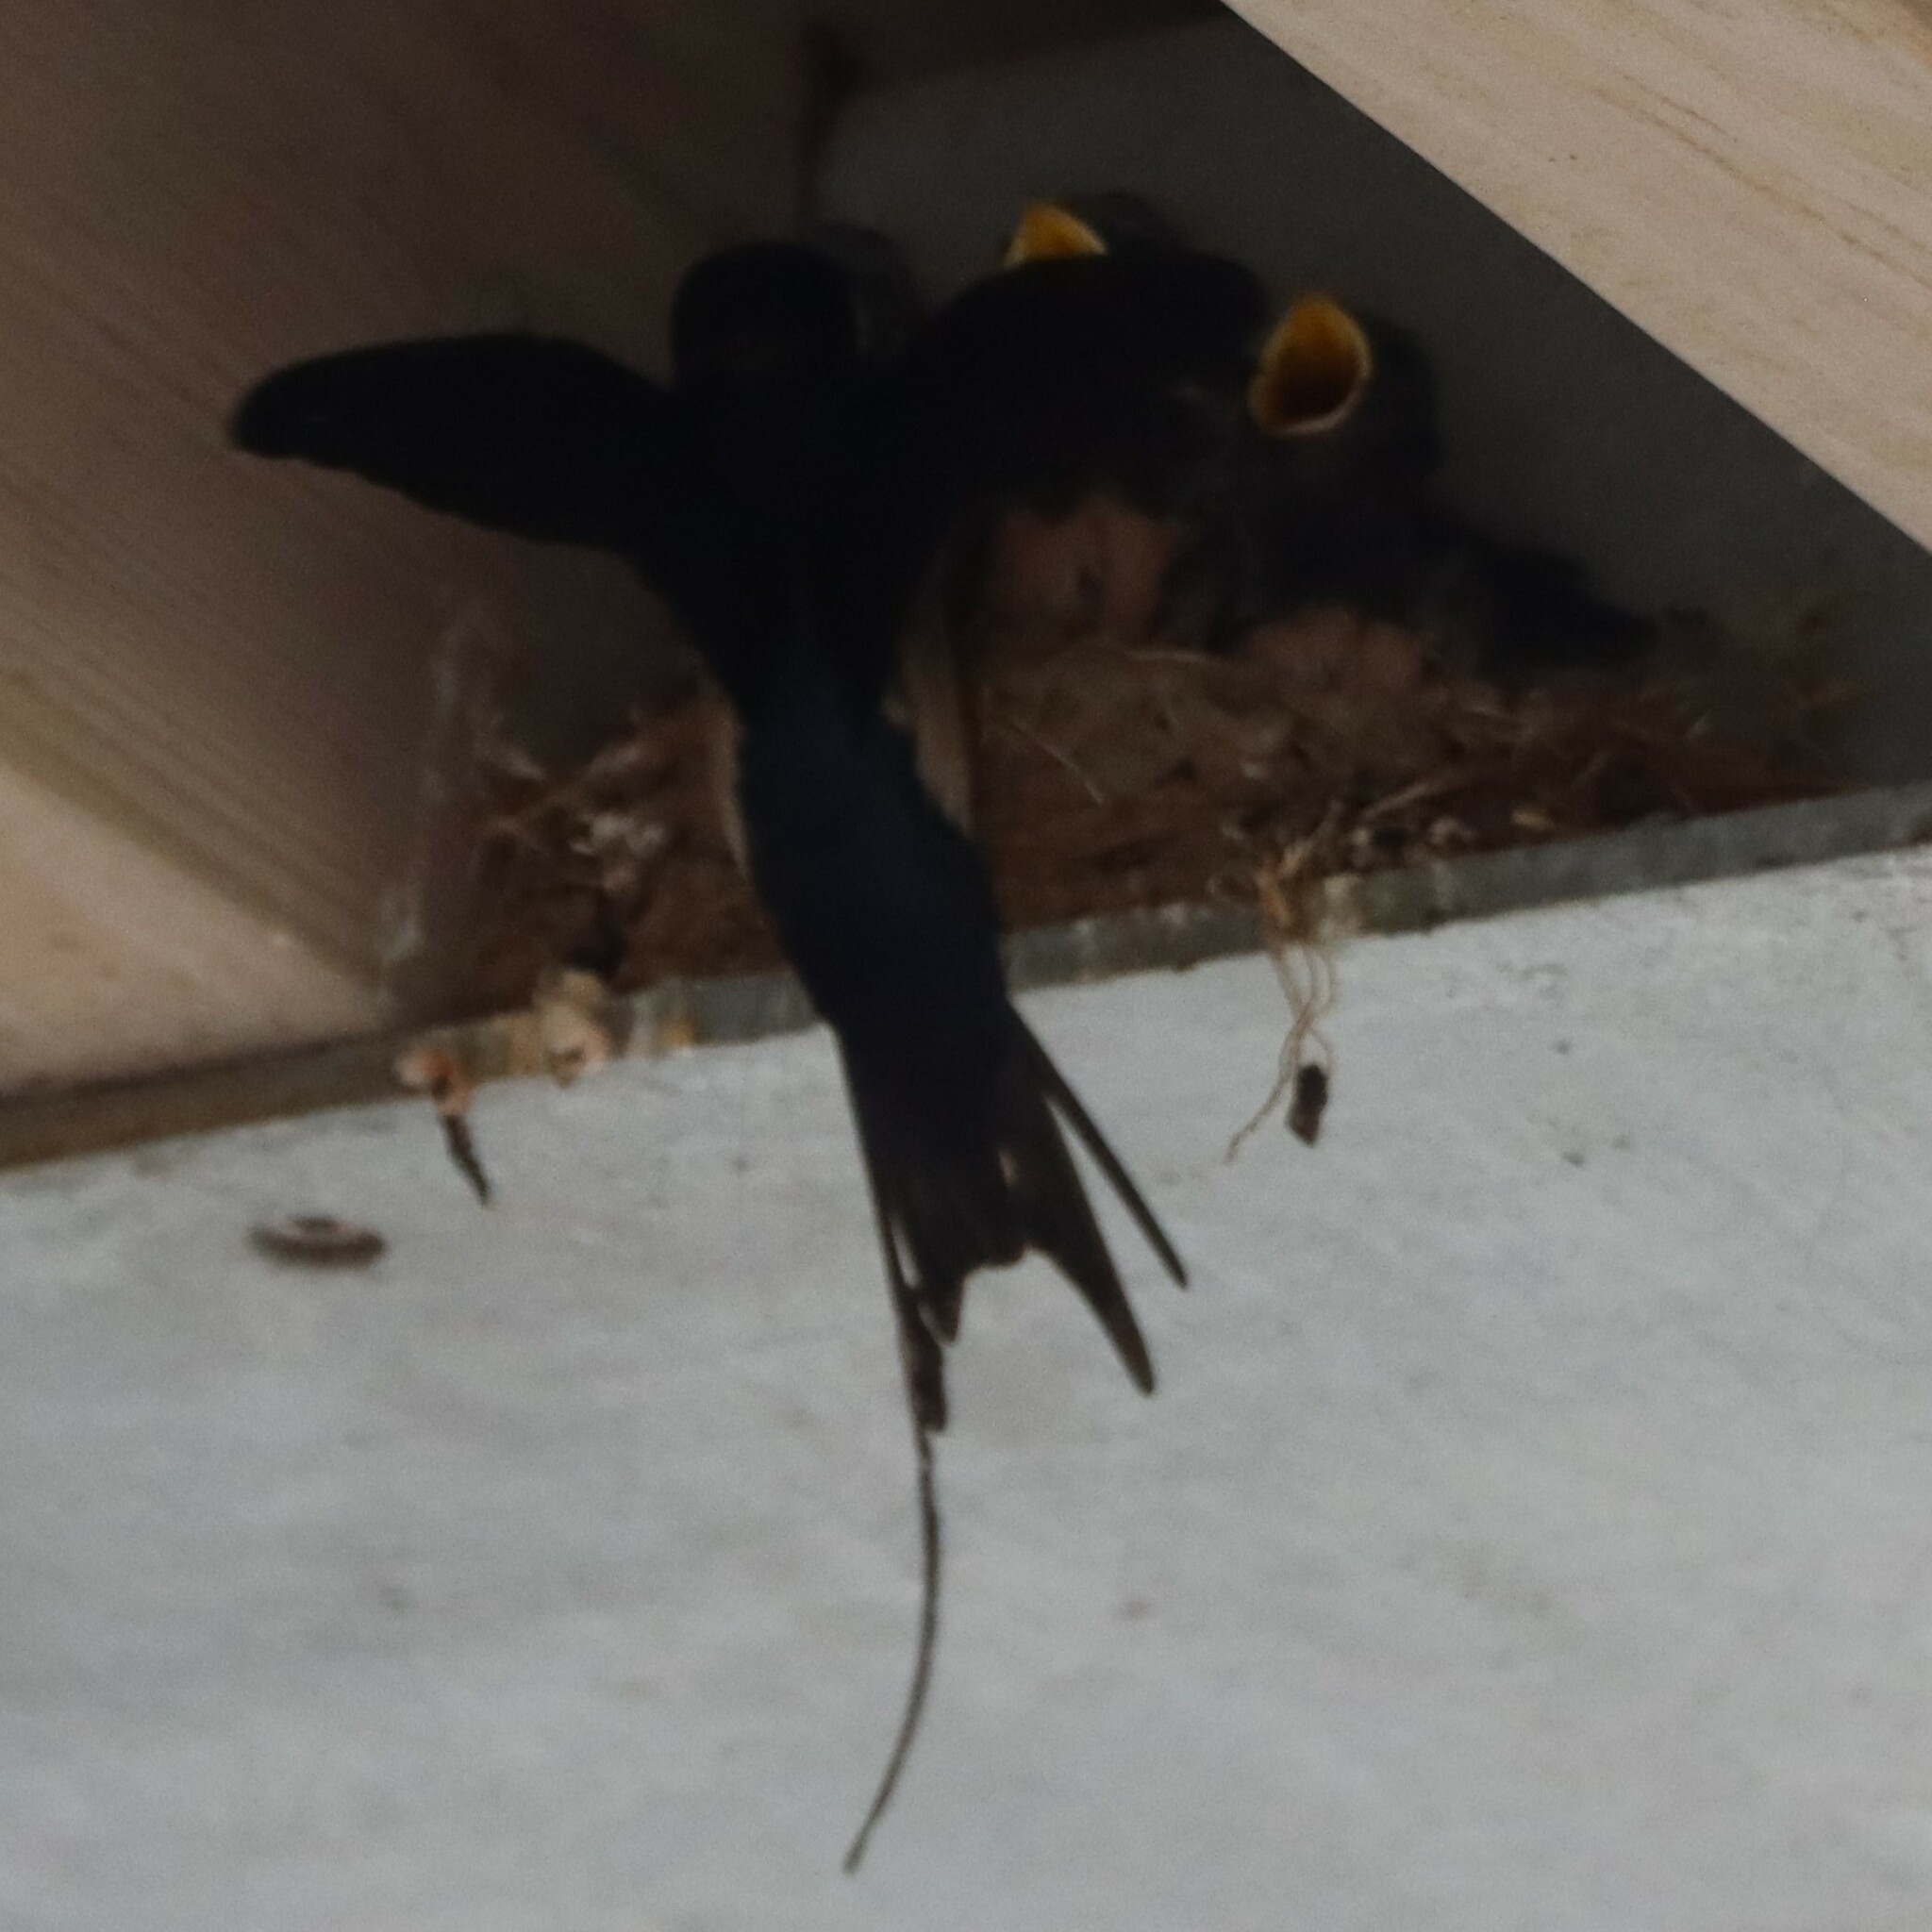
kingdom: Animalia
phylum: Chordata
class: Aves
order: Passeriformes
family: Hirundinidae
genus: Hirundo
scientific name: Hirundo rustica
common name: Barn swallow
